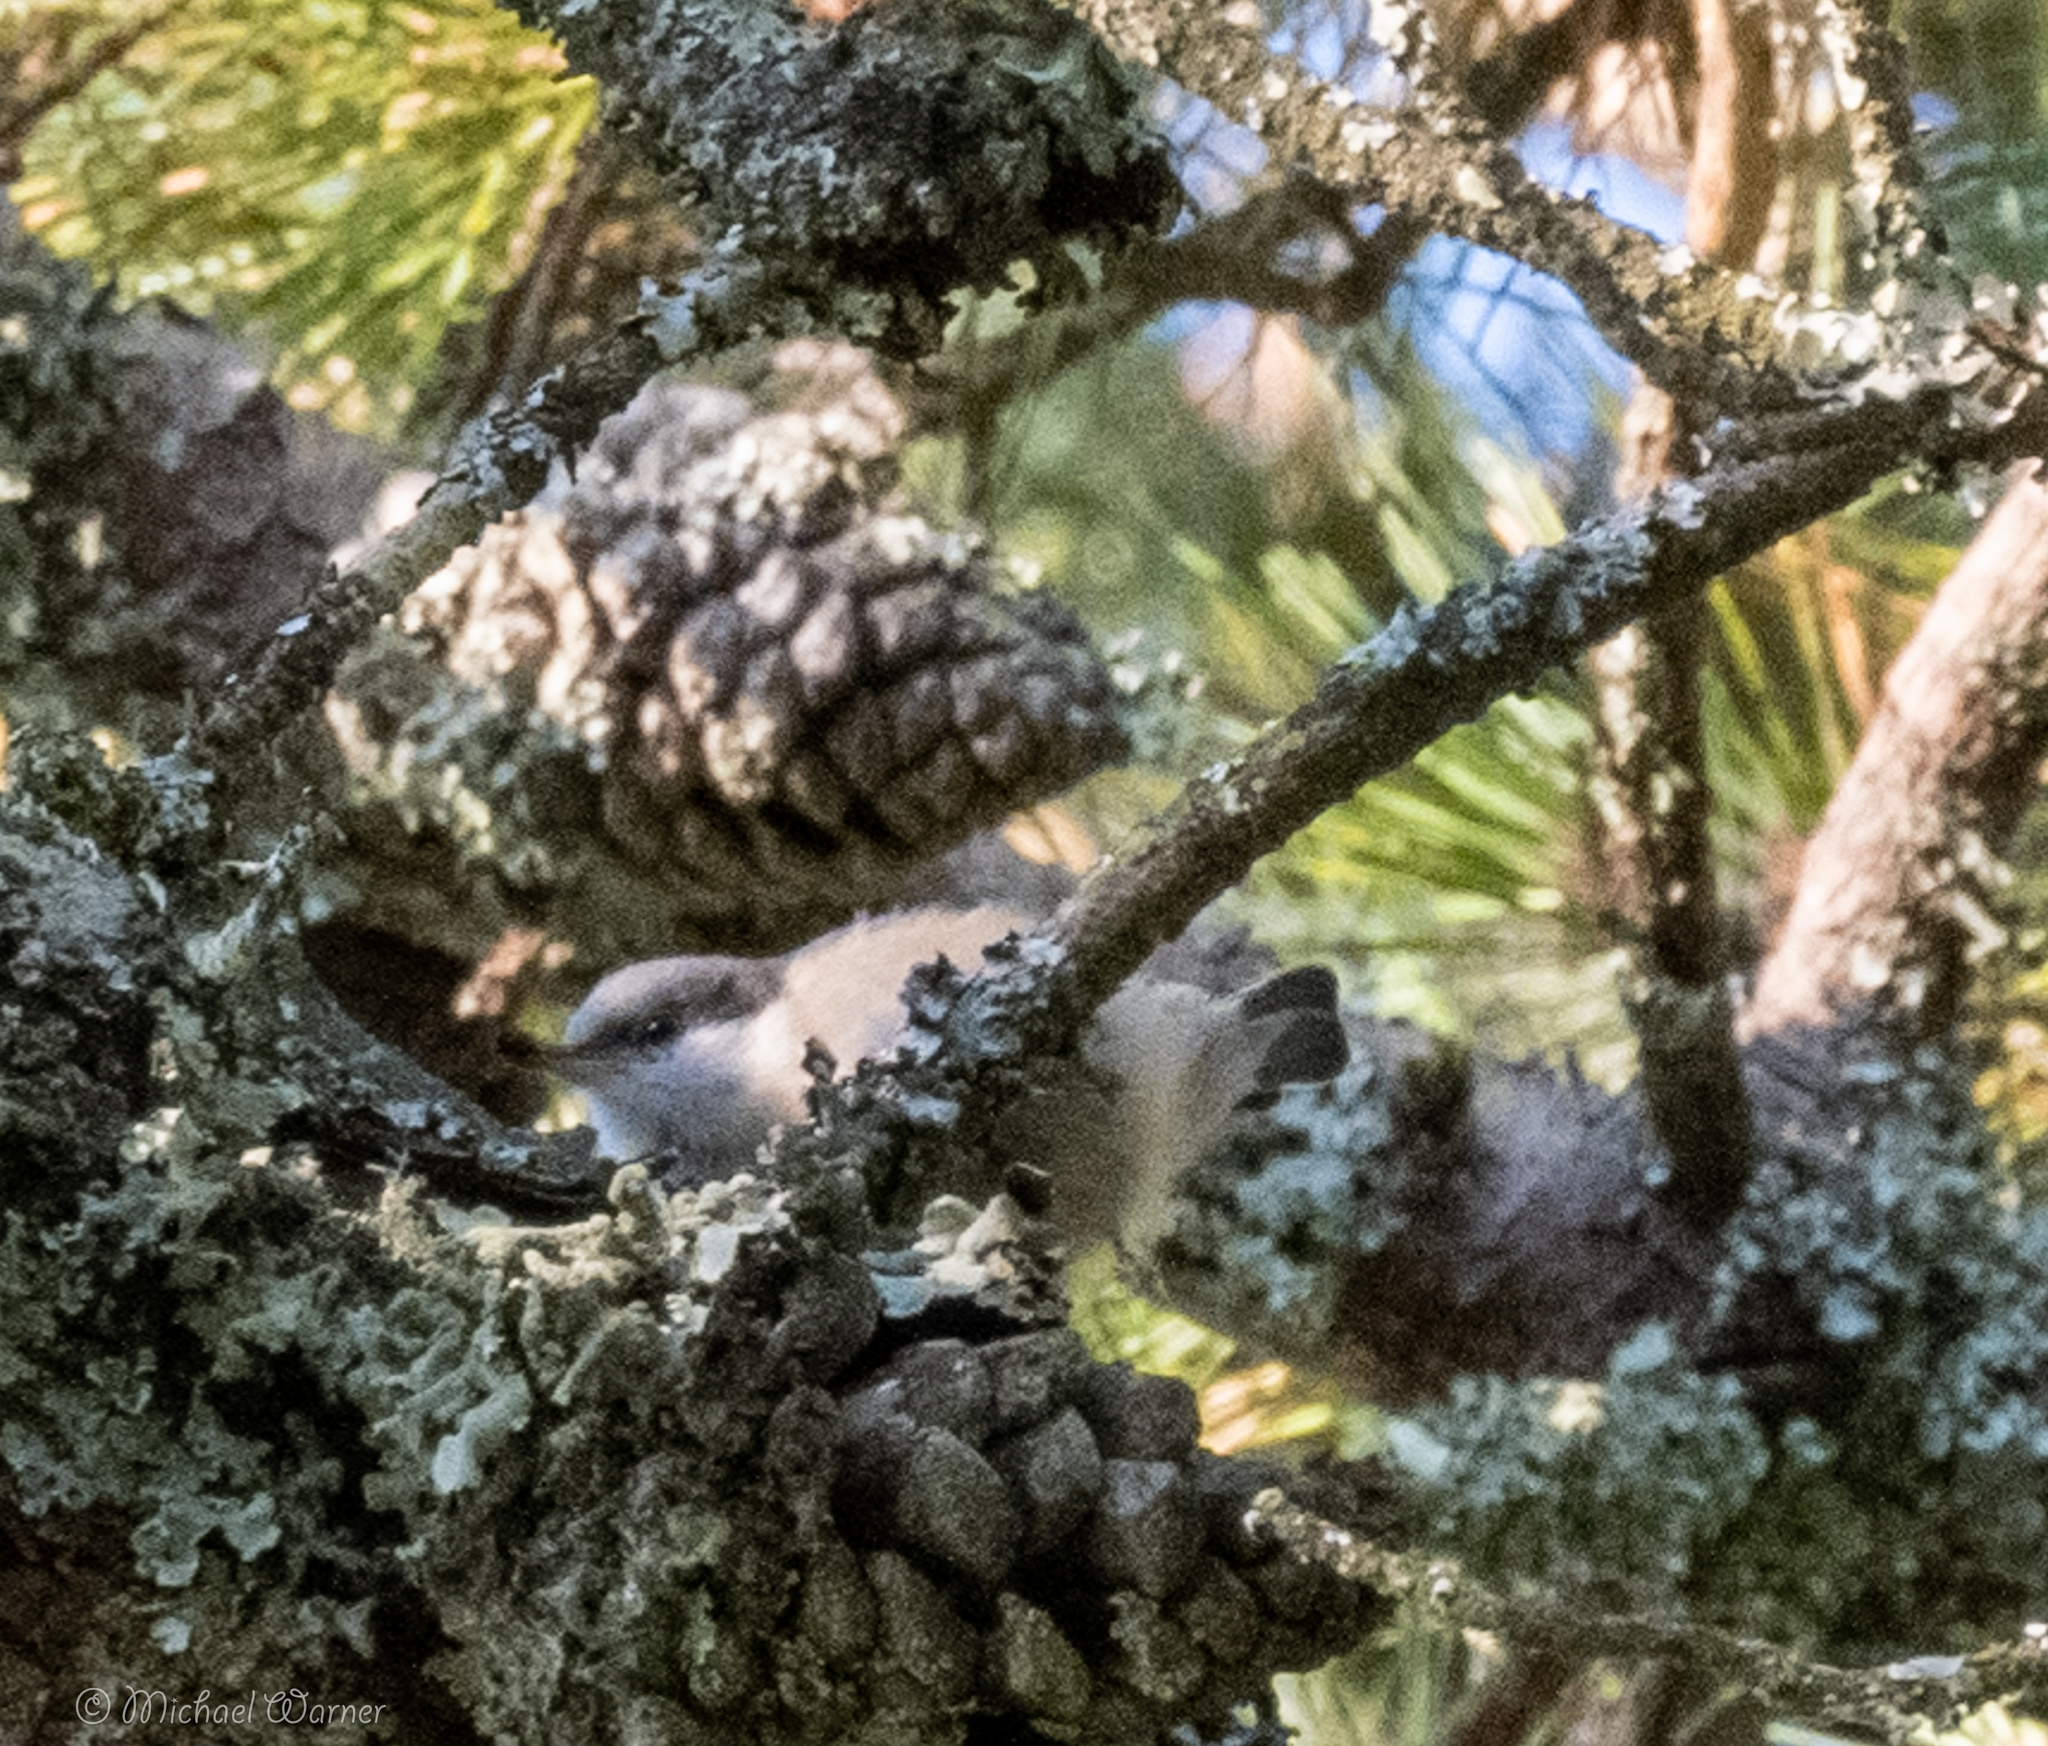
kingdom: Animalia
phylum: Chordata
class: Aves
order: Passeriformes
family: Sittidae
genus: Sitta
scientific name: Sitta pygmaea
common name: Pygmy nuthatch
